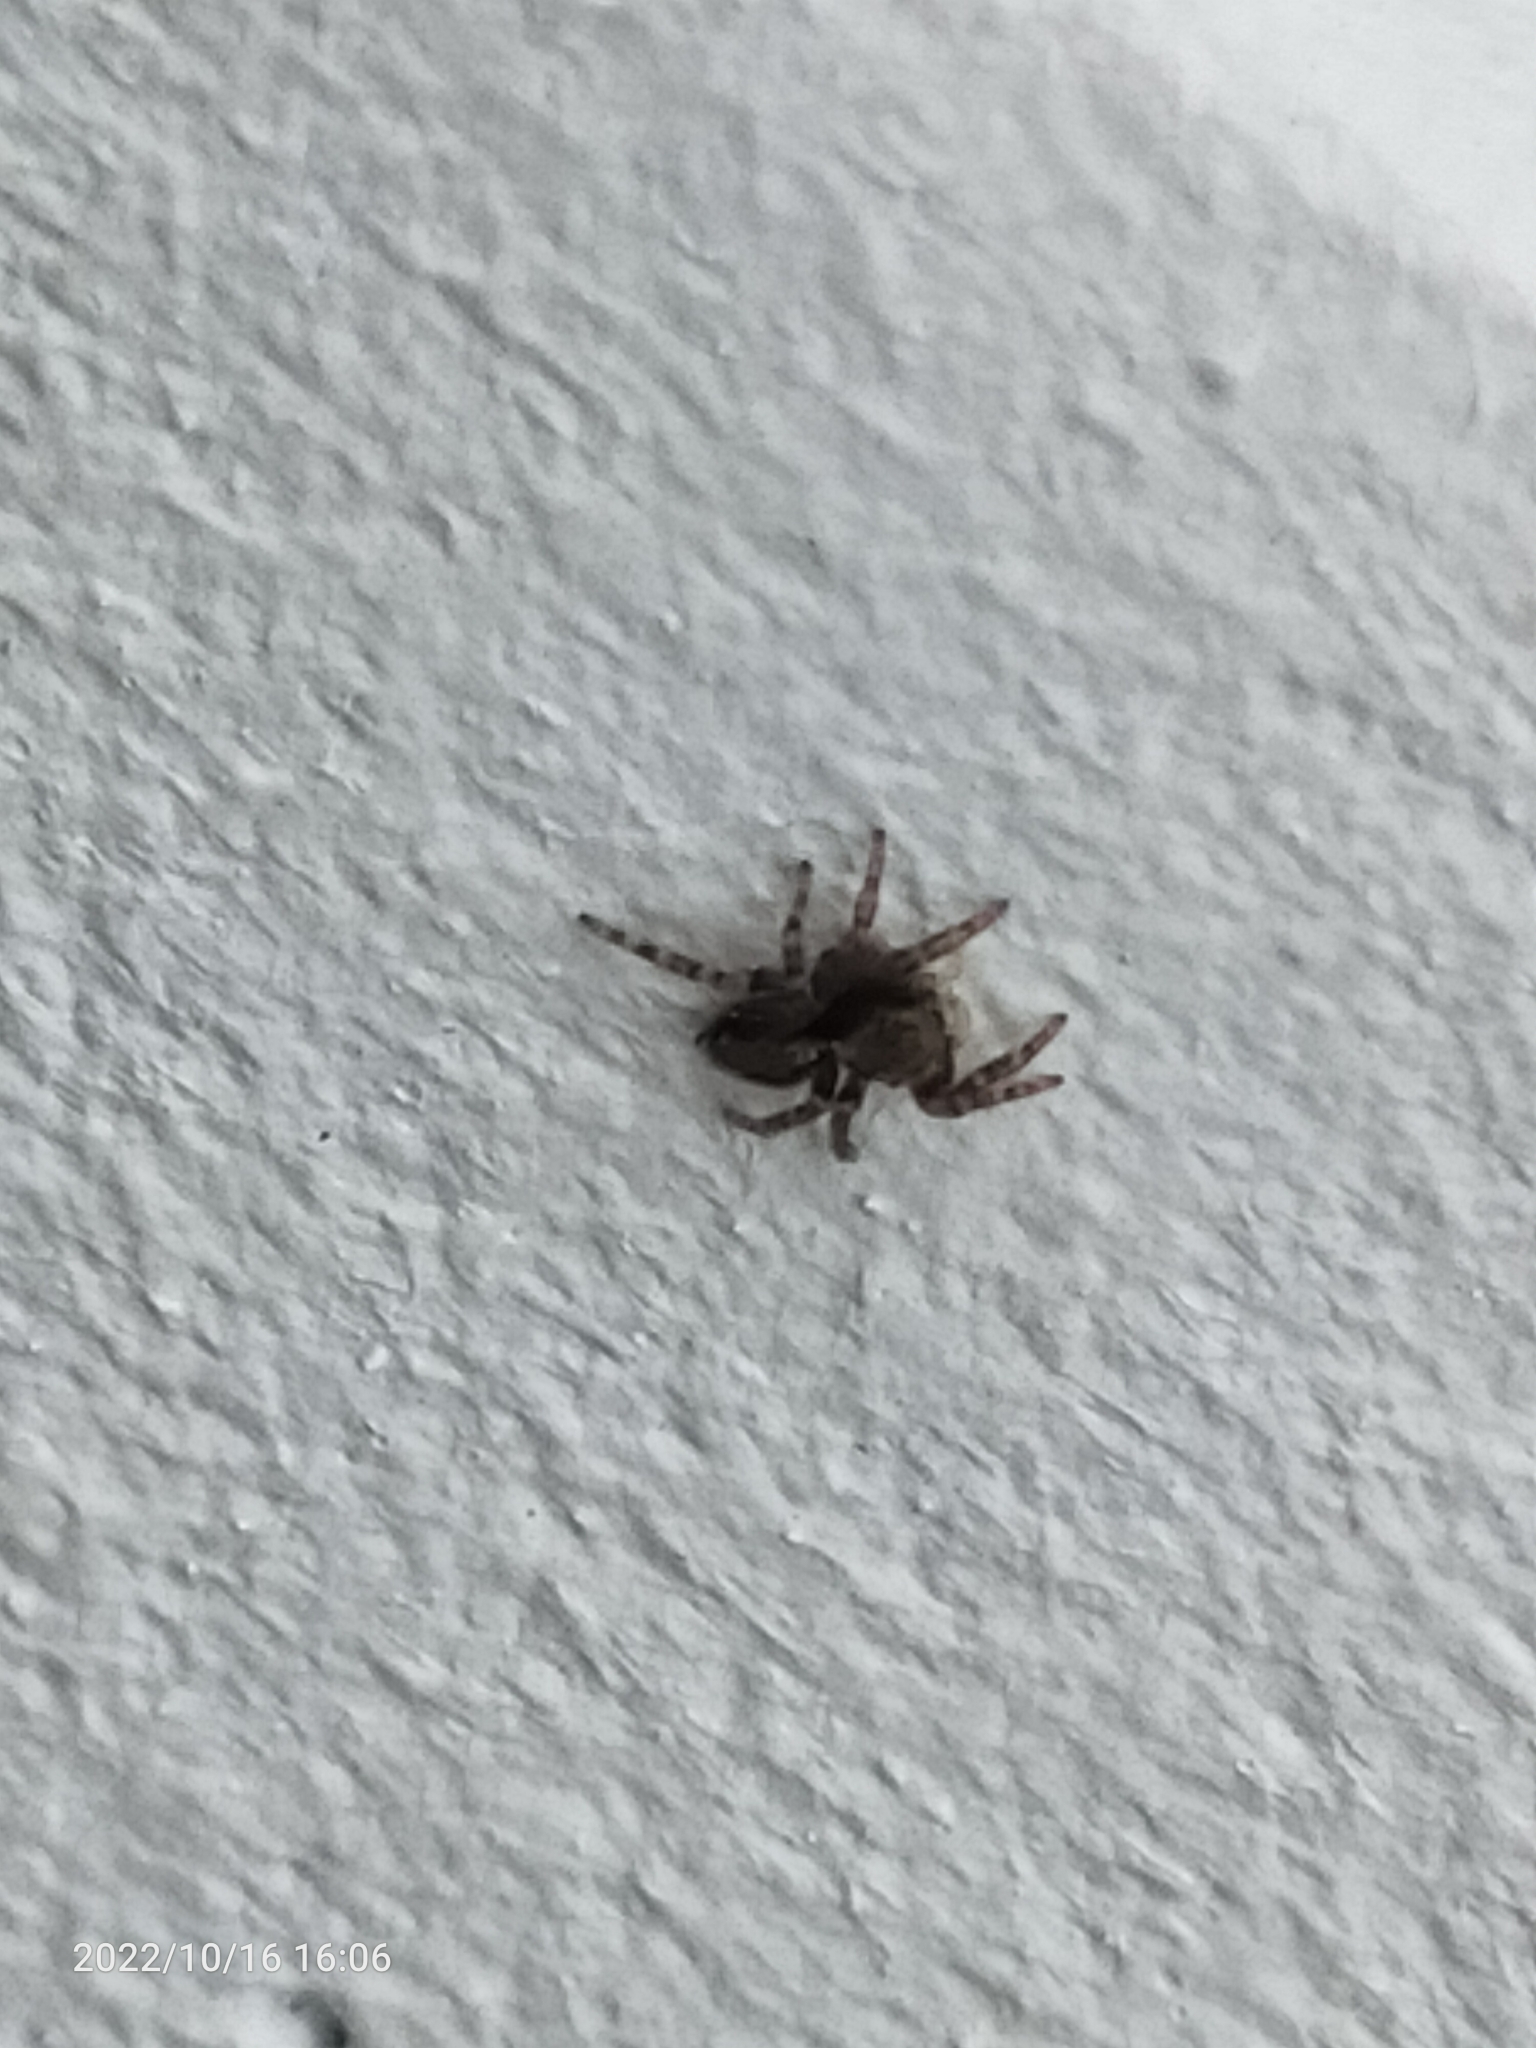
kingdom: Animalia
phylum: Arthropoda
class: Arachnida
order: Araneae
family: Salticidae
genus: Pseudeuophrys
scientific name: Pseudeuophrys lanigera
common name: Jumping spider
